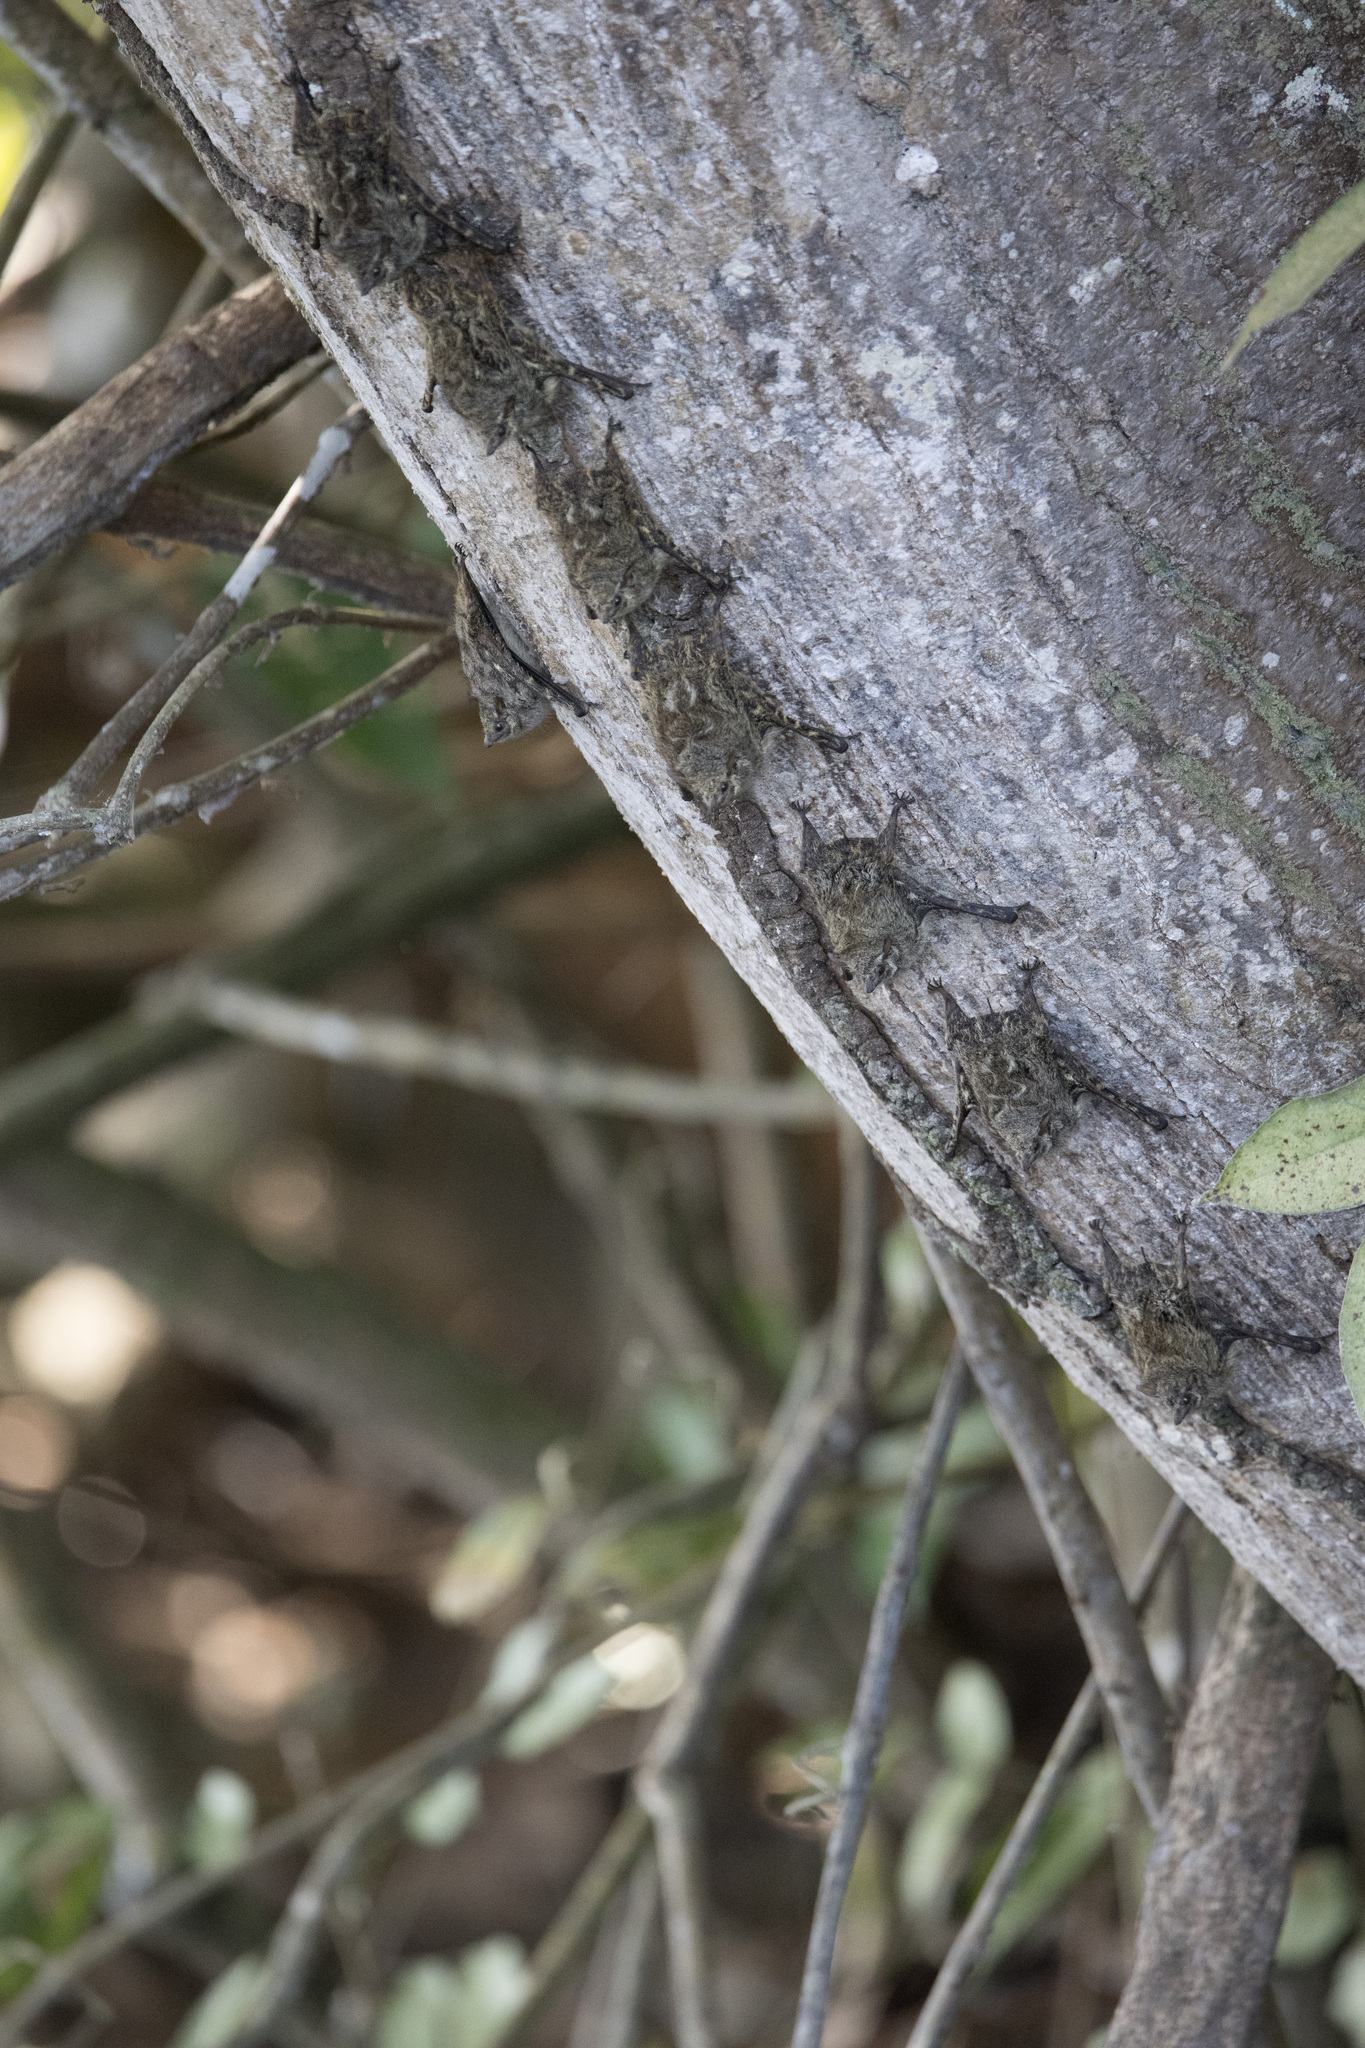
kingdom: Animalia
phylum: Chordata
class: Mammalia
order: Chiroptera
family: Emballonuridae
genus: Rhynchonycteris
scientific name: Rhynchonycteris naso
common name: Proboscis bat
